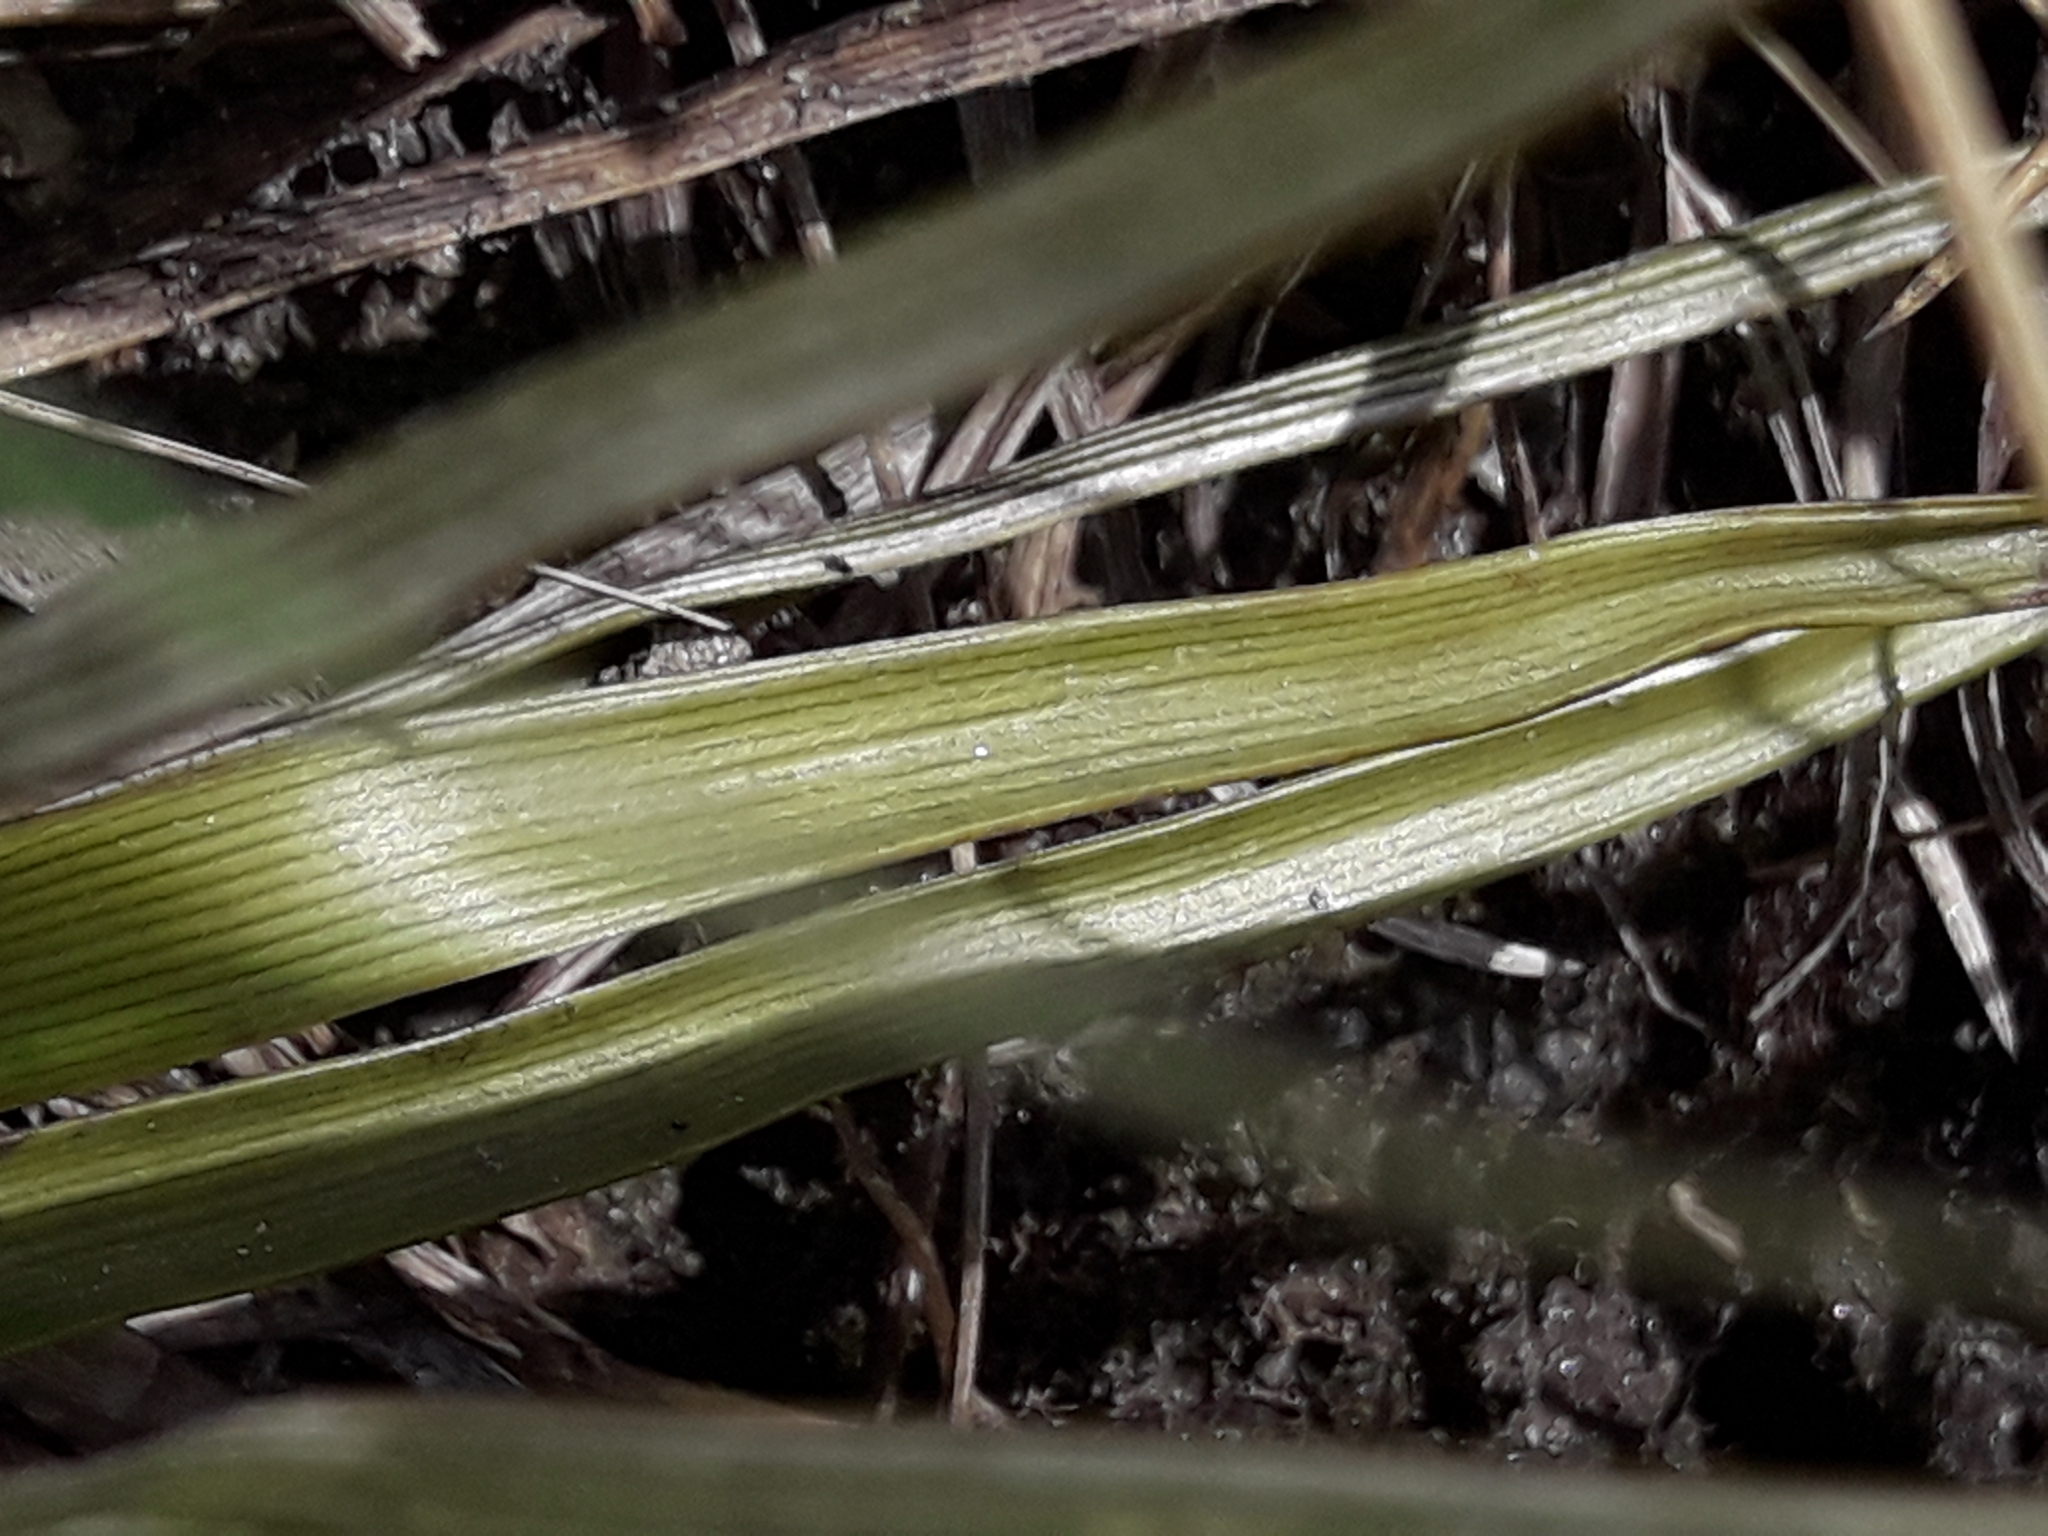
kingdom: Plantae
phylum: Tracheophyta
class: Magnoliopsida
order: Asterales
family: Asteraceae
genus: Celmisia
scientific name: Celmisia lyallii
